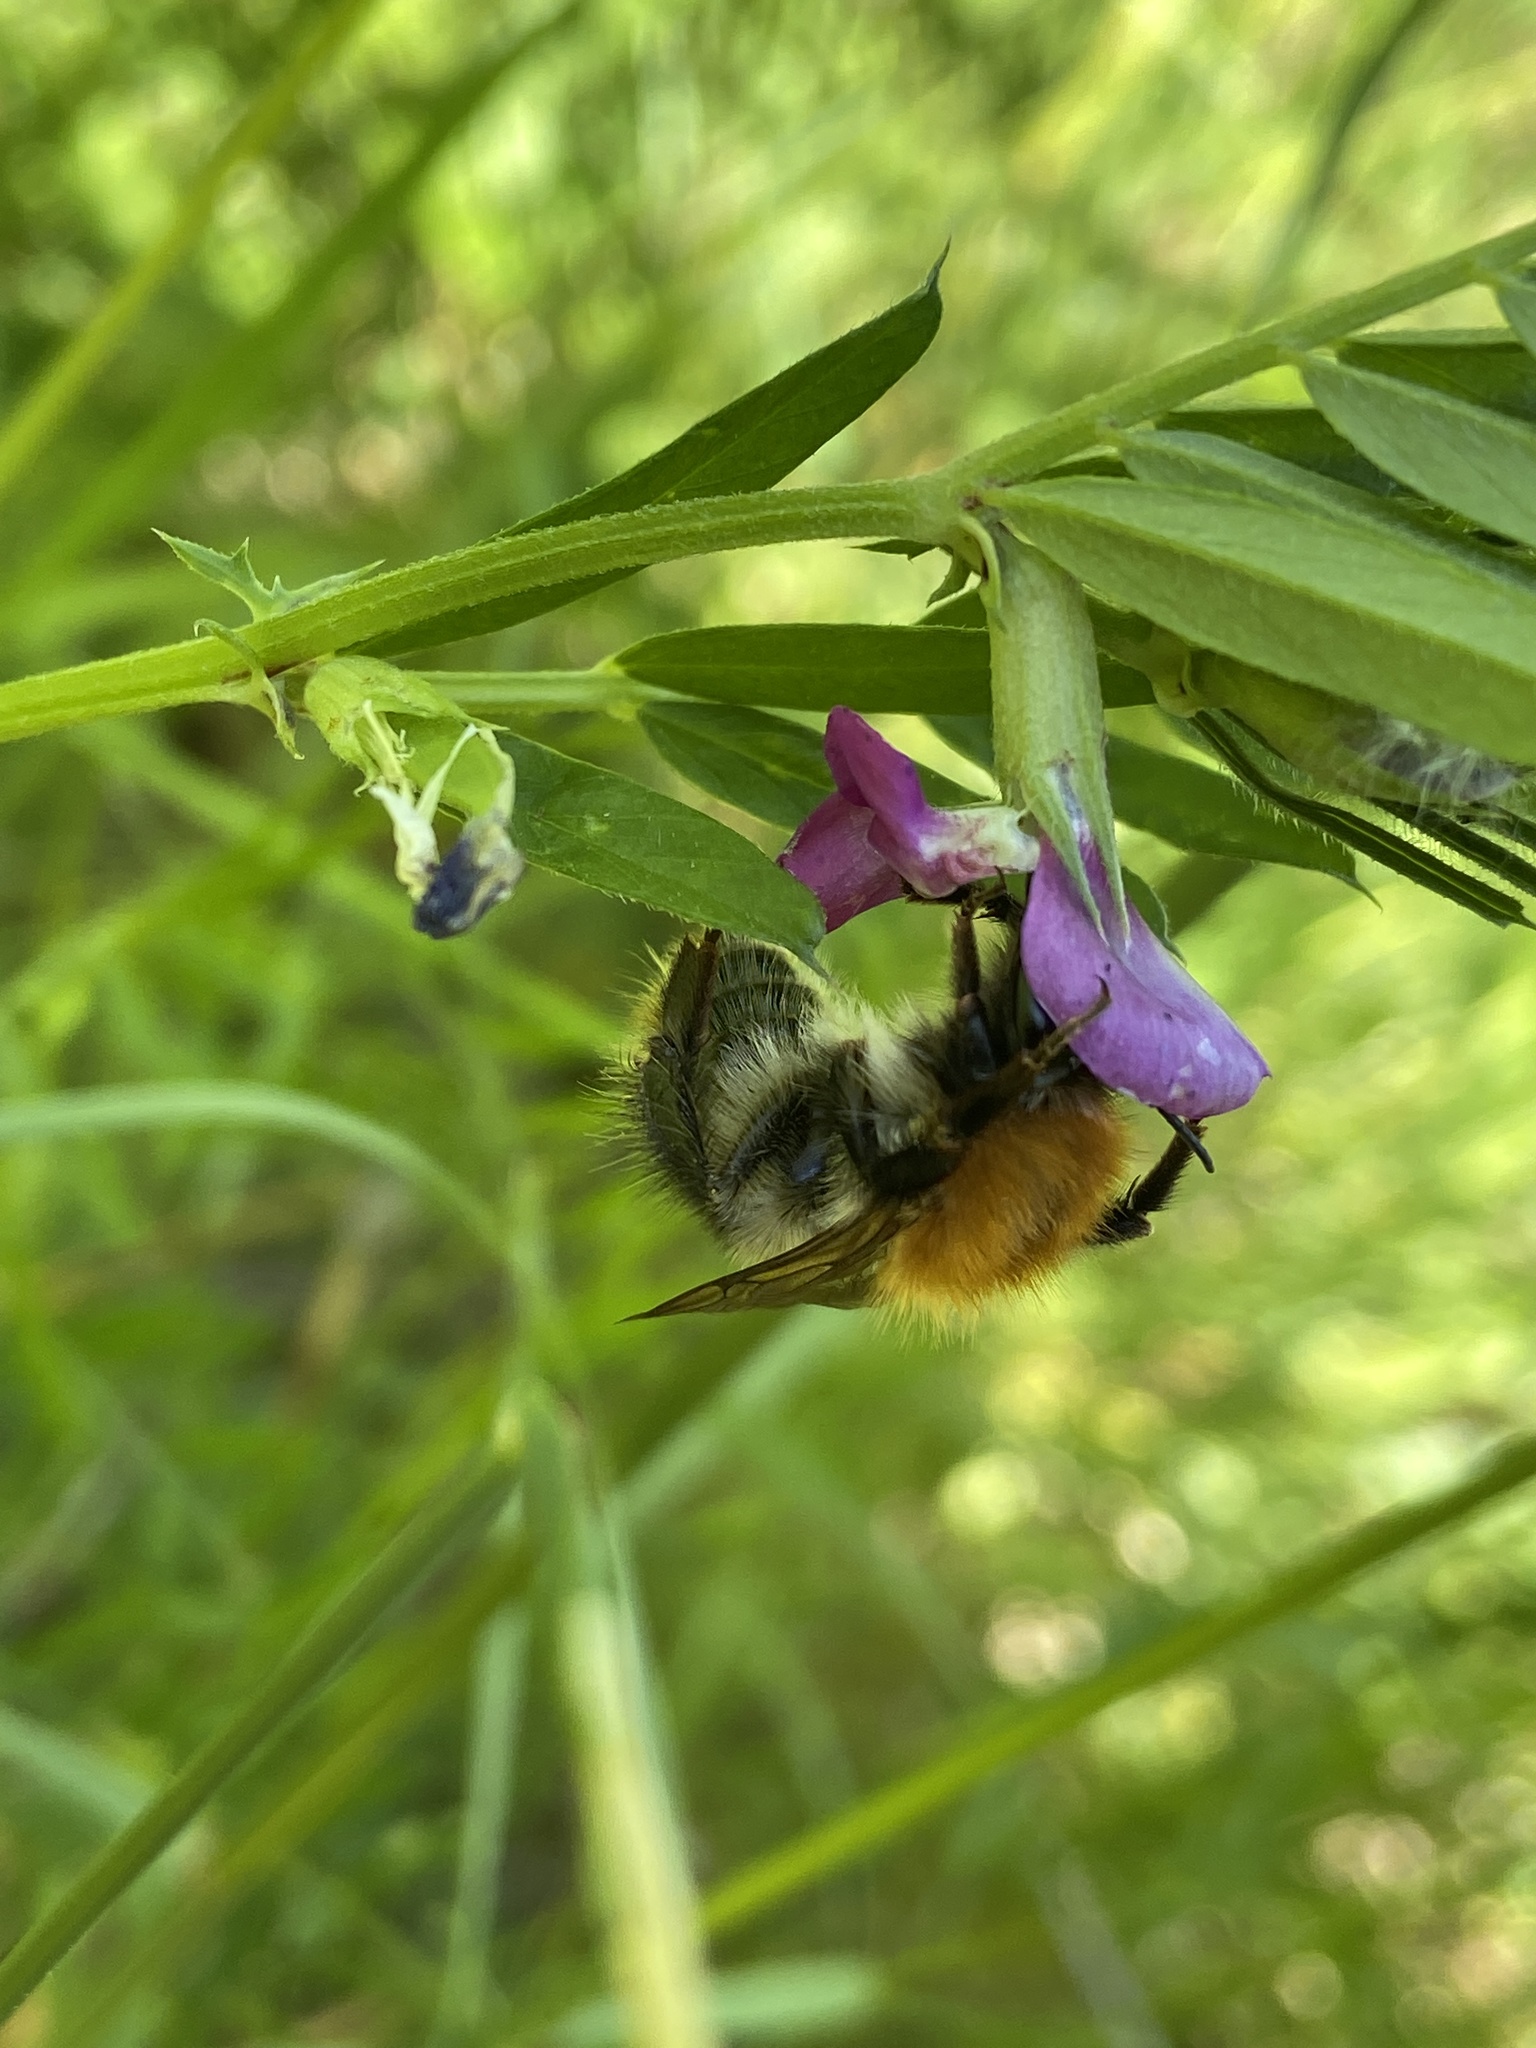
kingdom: Animalia
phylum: Arthropoda
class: Insecta
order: Hymenoptera
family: Apidae
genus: Bombus
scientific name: Bombus pascuorum
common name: Common carder bee
